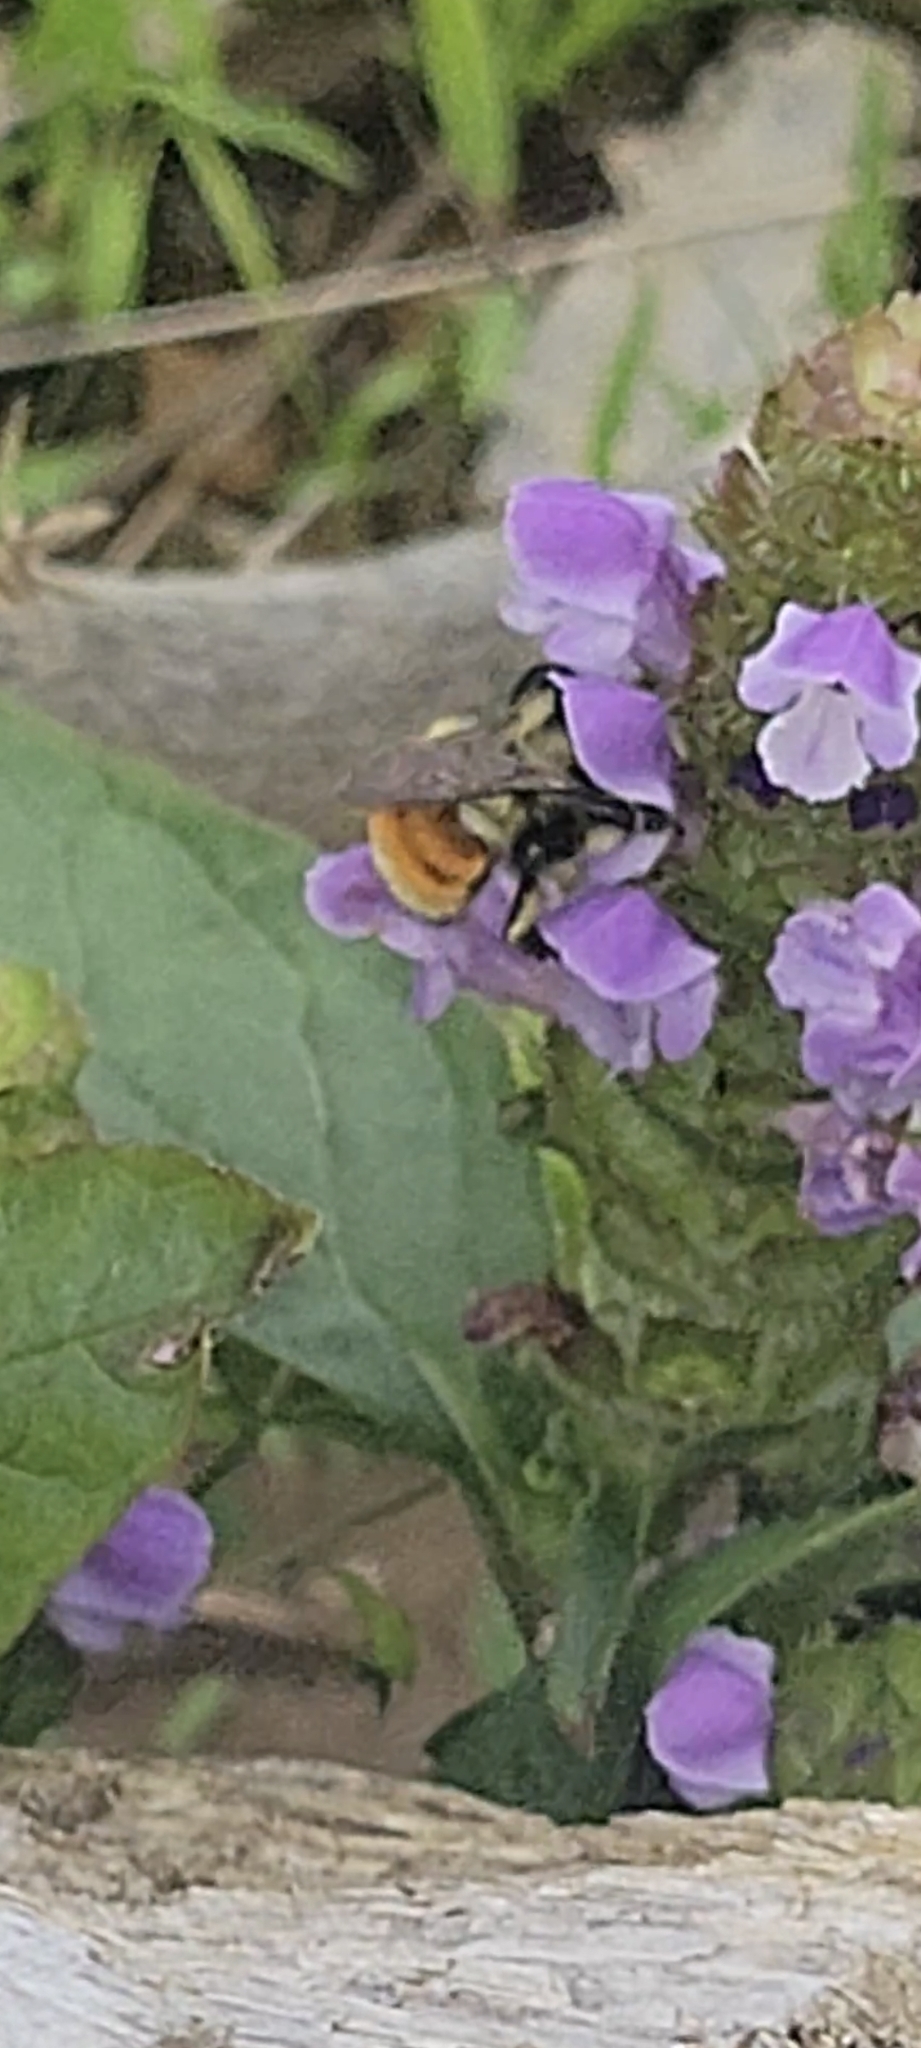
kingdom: Animalia
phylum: Arthropoda
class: Insecta
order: Hymenoptera
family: Apidae
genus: Bombus
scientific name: Bombus ternarius
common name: Tri-colored bumble bee
